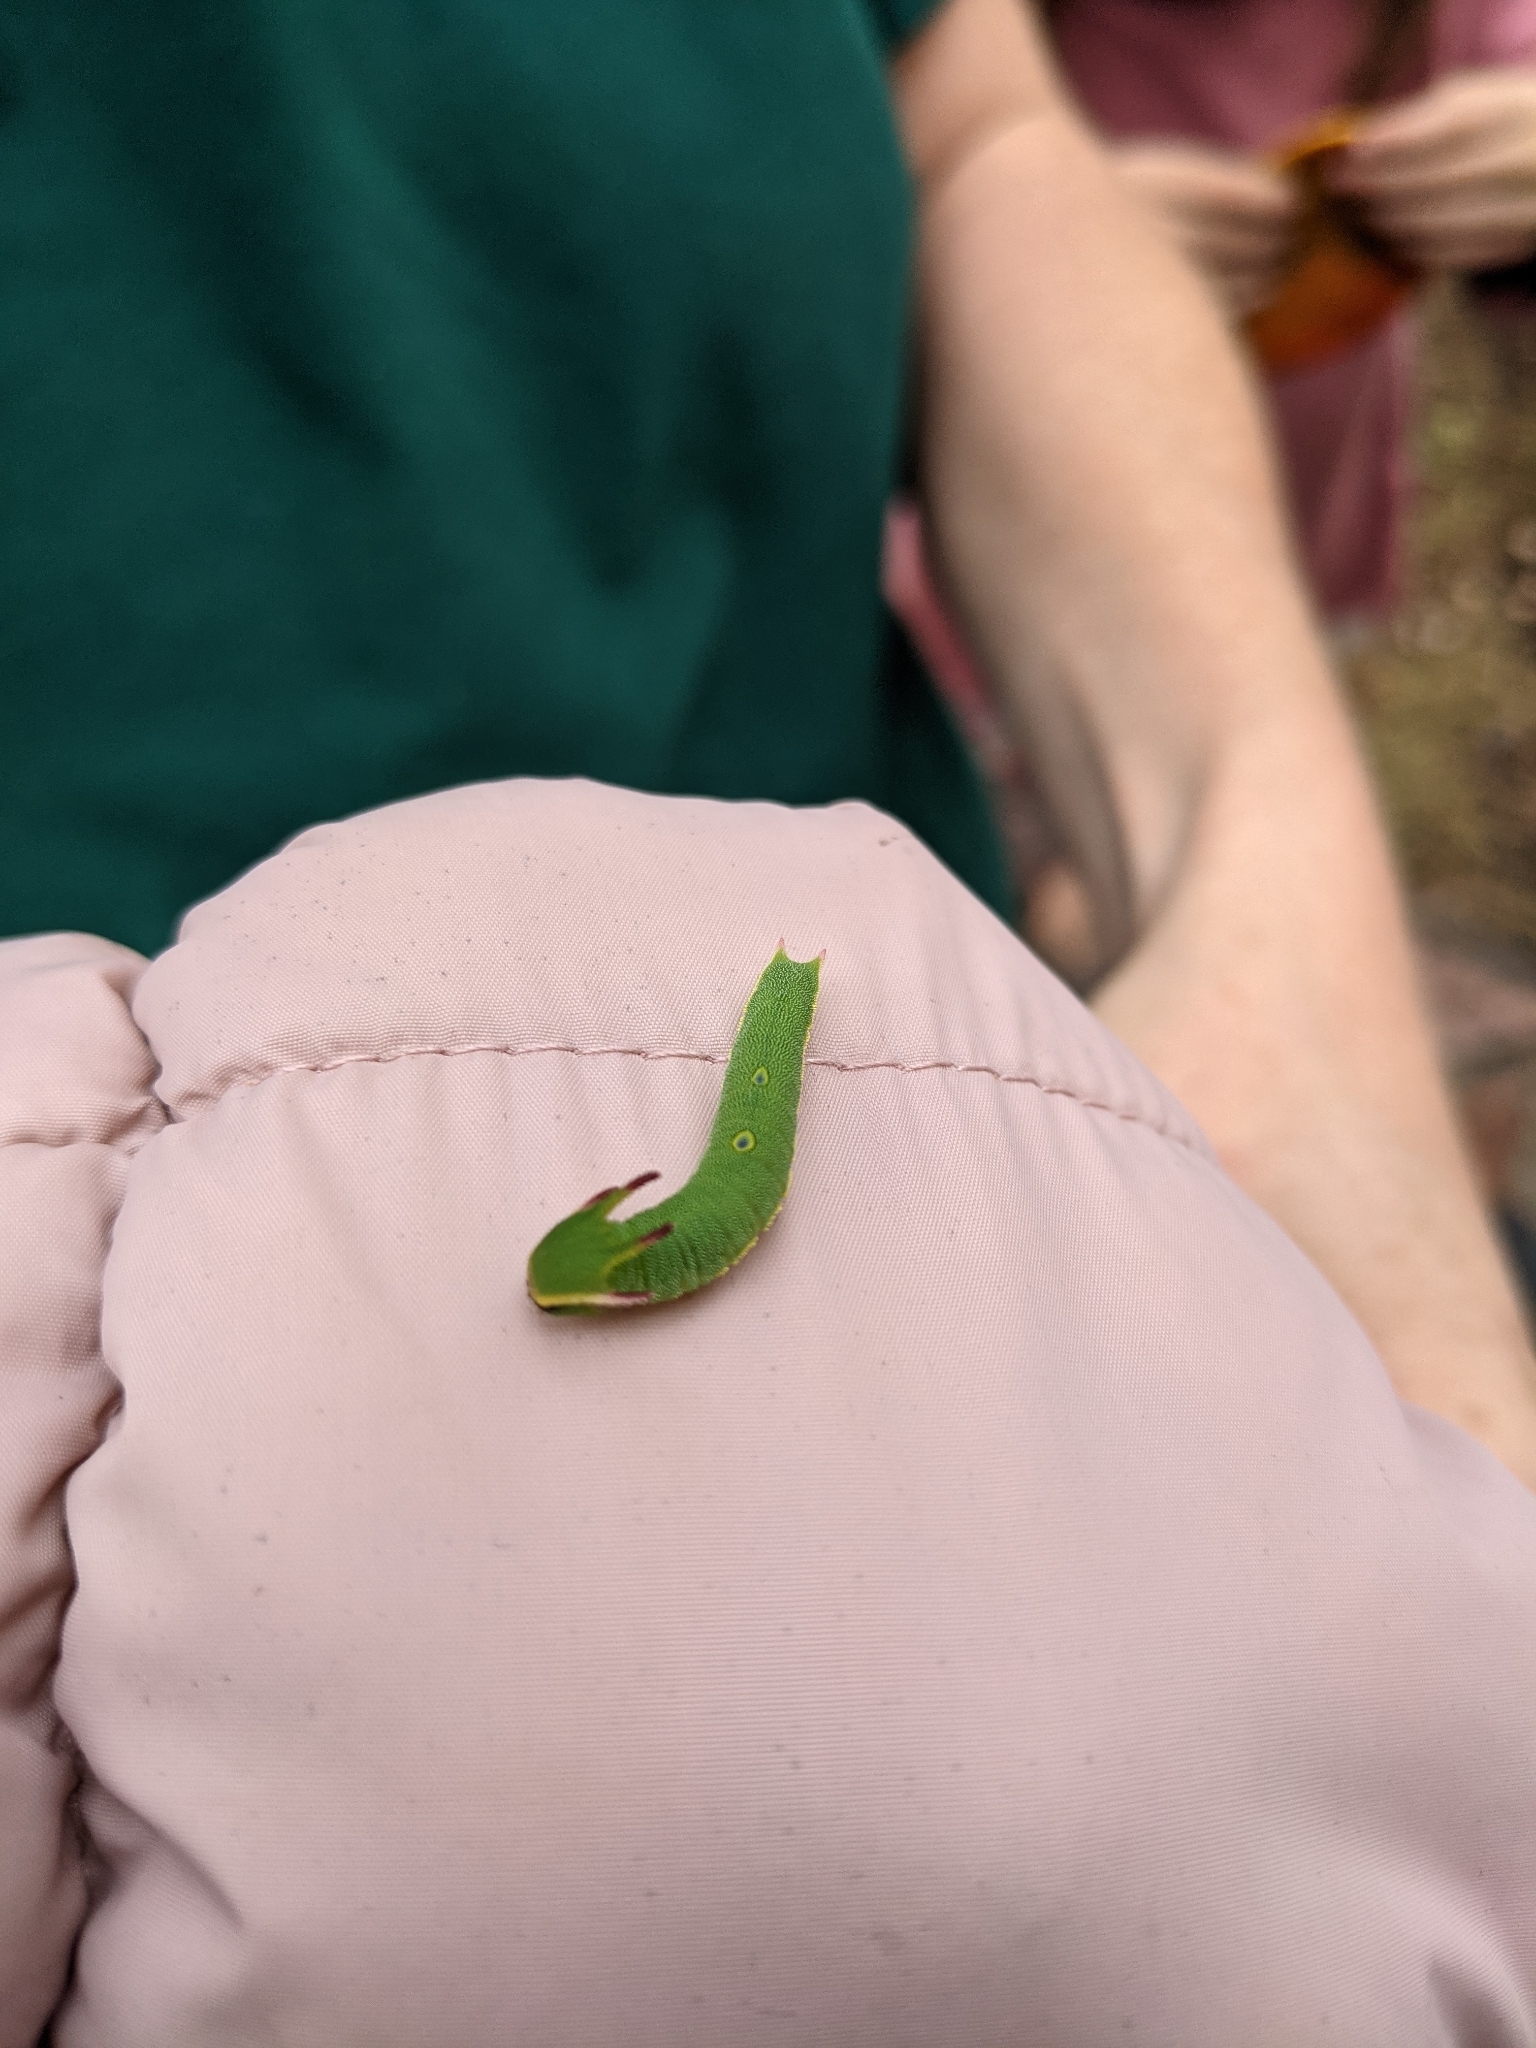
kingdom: Animalia
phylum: Arthropoda
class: Insecta
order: Lepidoptera
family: Nymphalidae
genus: Charaxes
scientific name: Charaxes jasius
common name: Two tailed pasha
